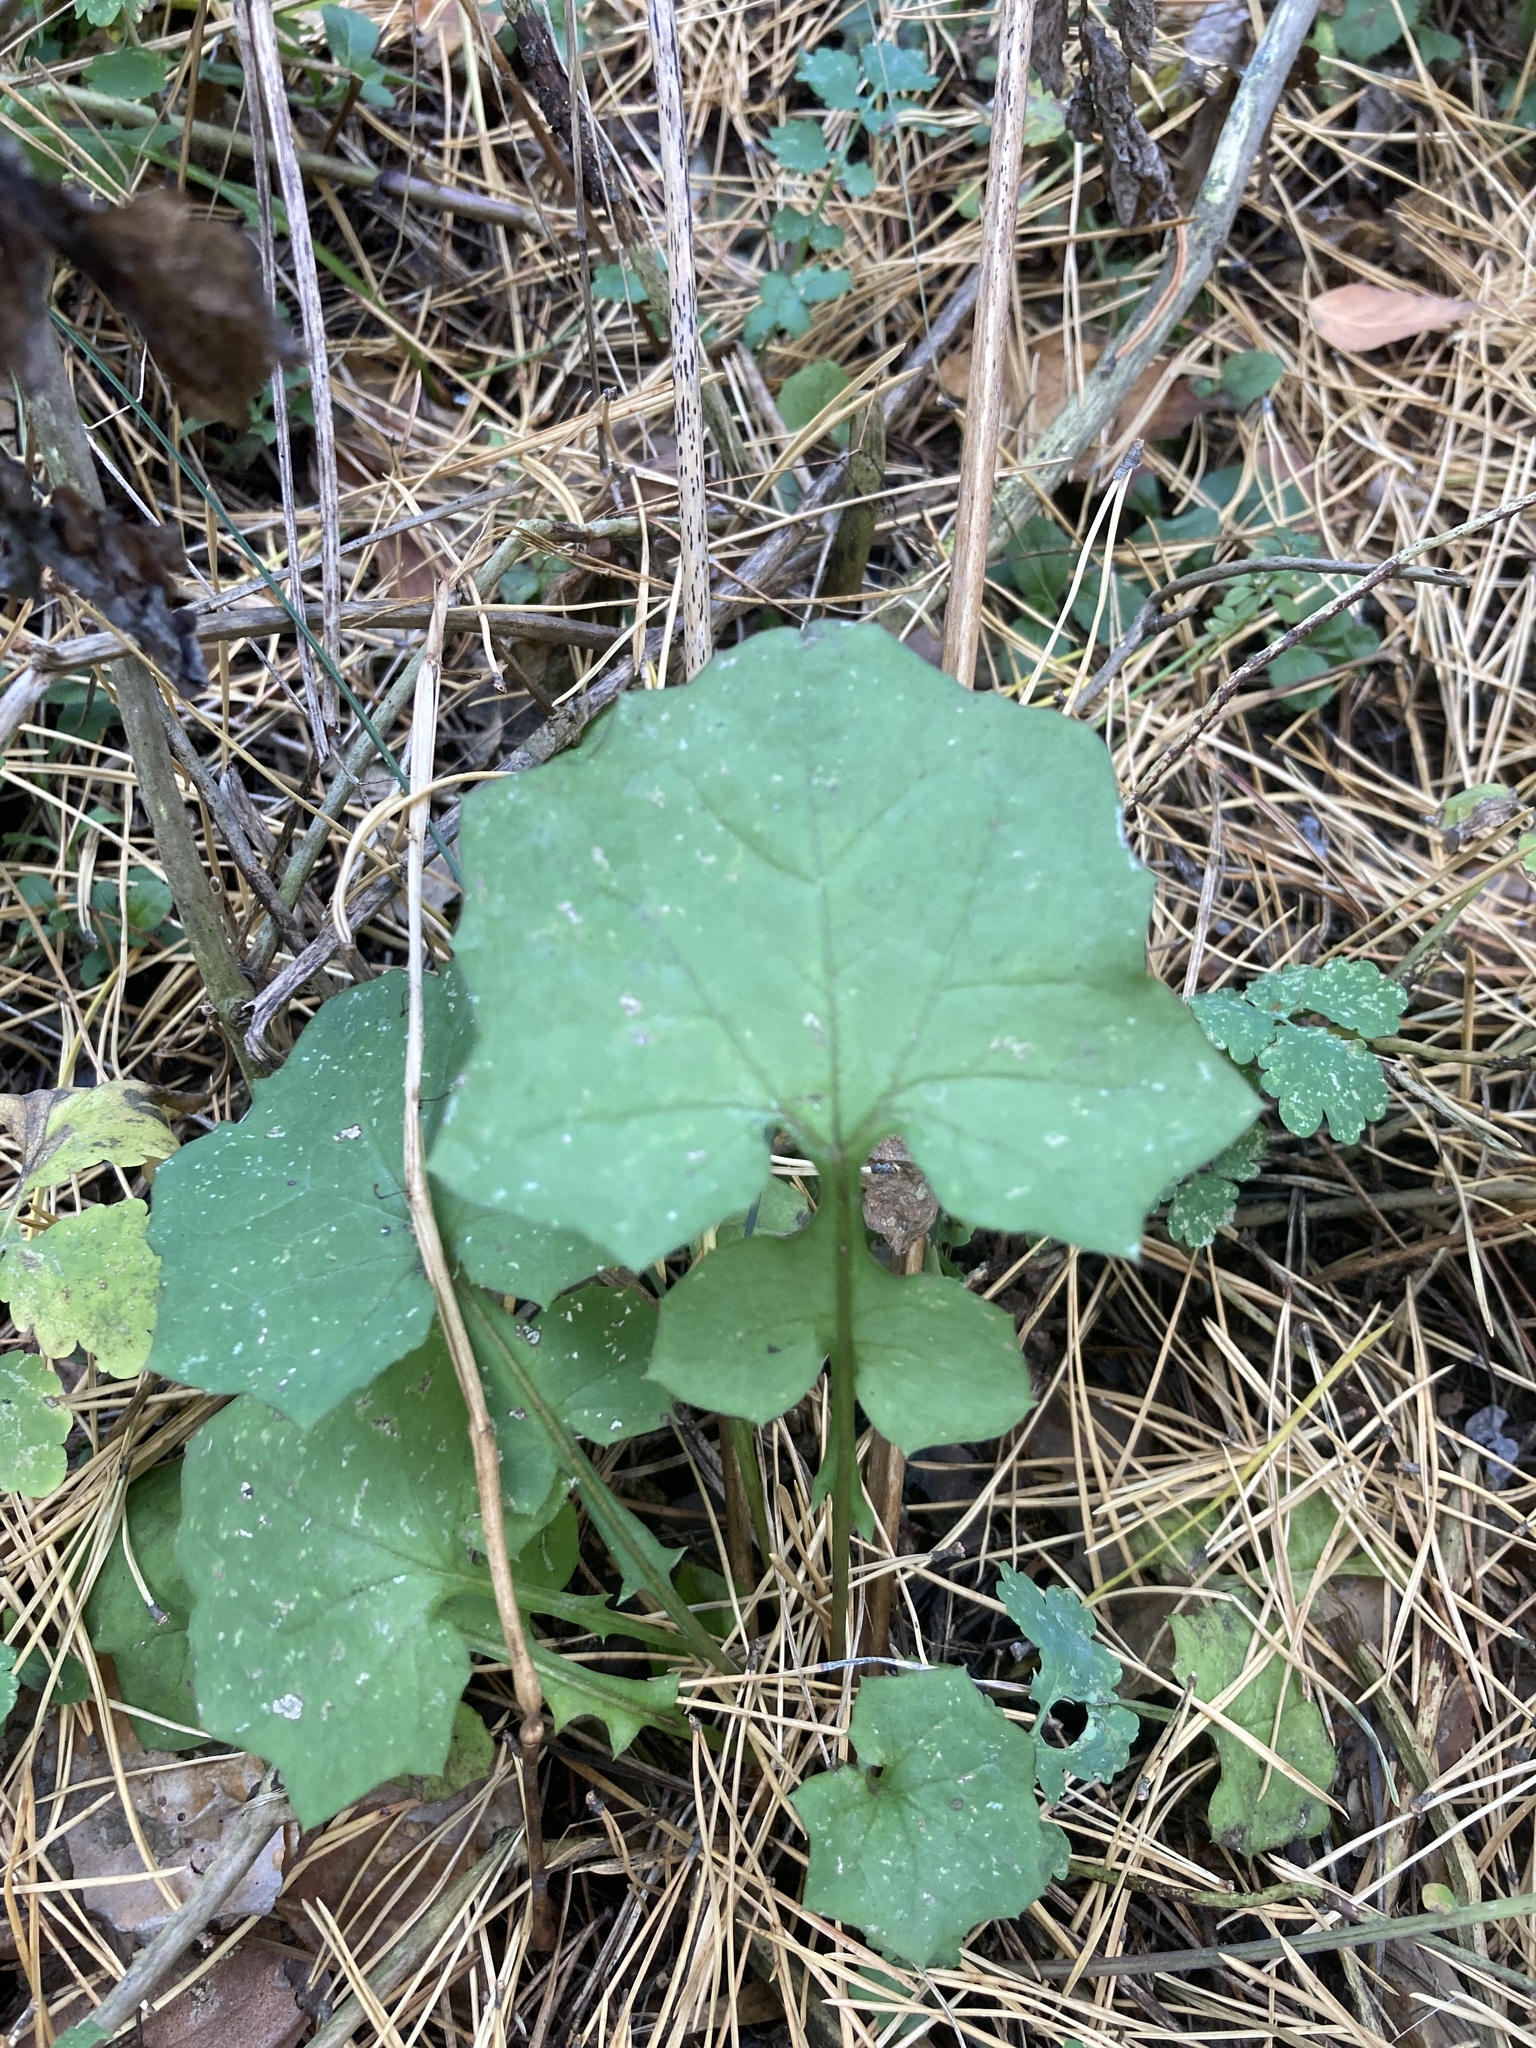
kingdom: Plantae
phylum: Tracheophyta
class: Magnoliopsida
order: Asterales
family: Asteraceae
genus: Mycelis
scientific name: Mycelis muralis
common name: Wall lettuce
